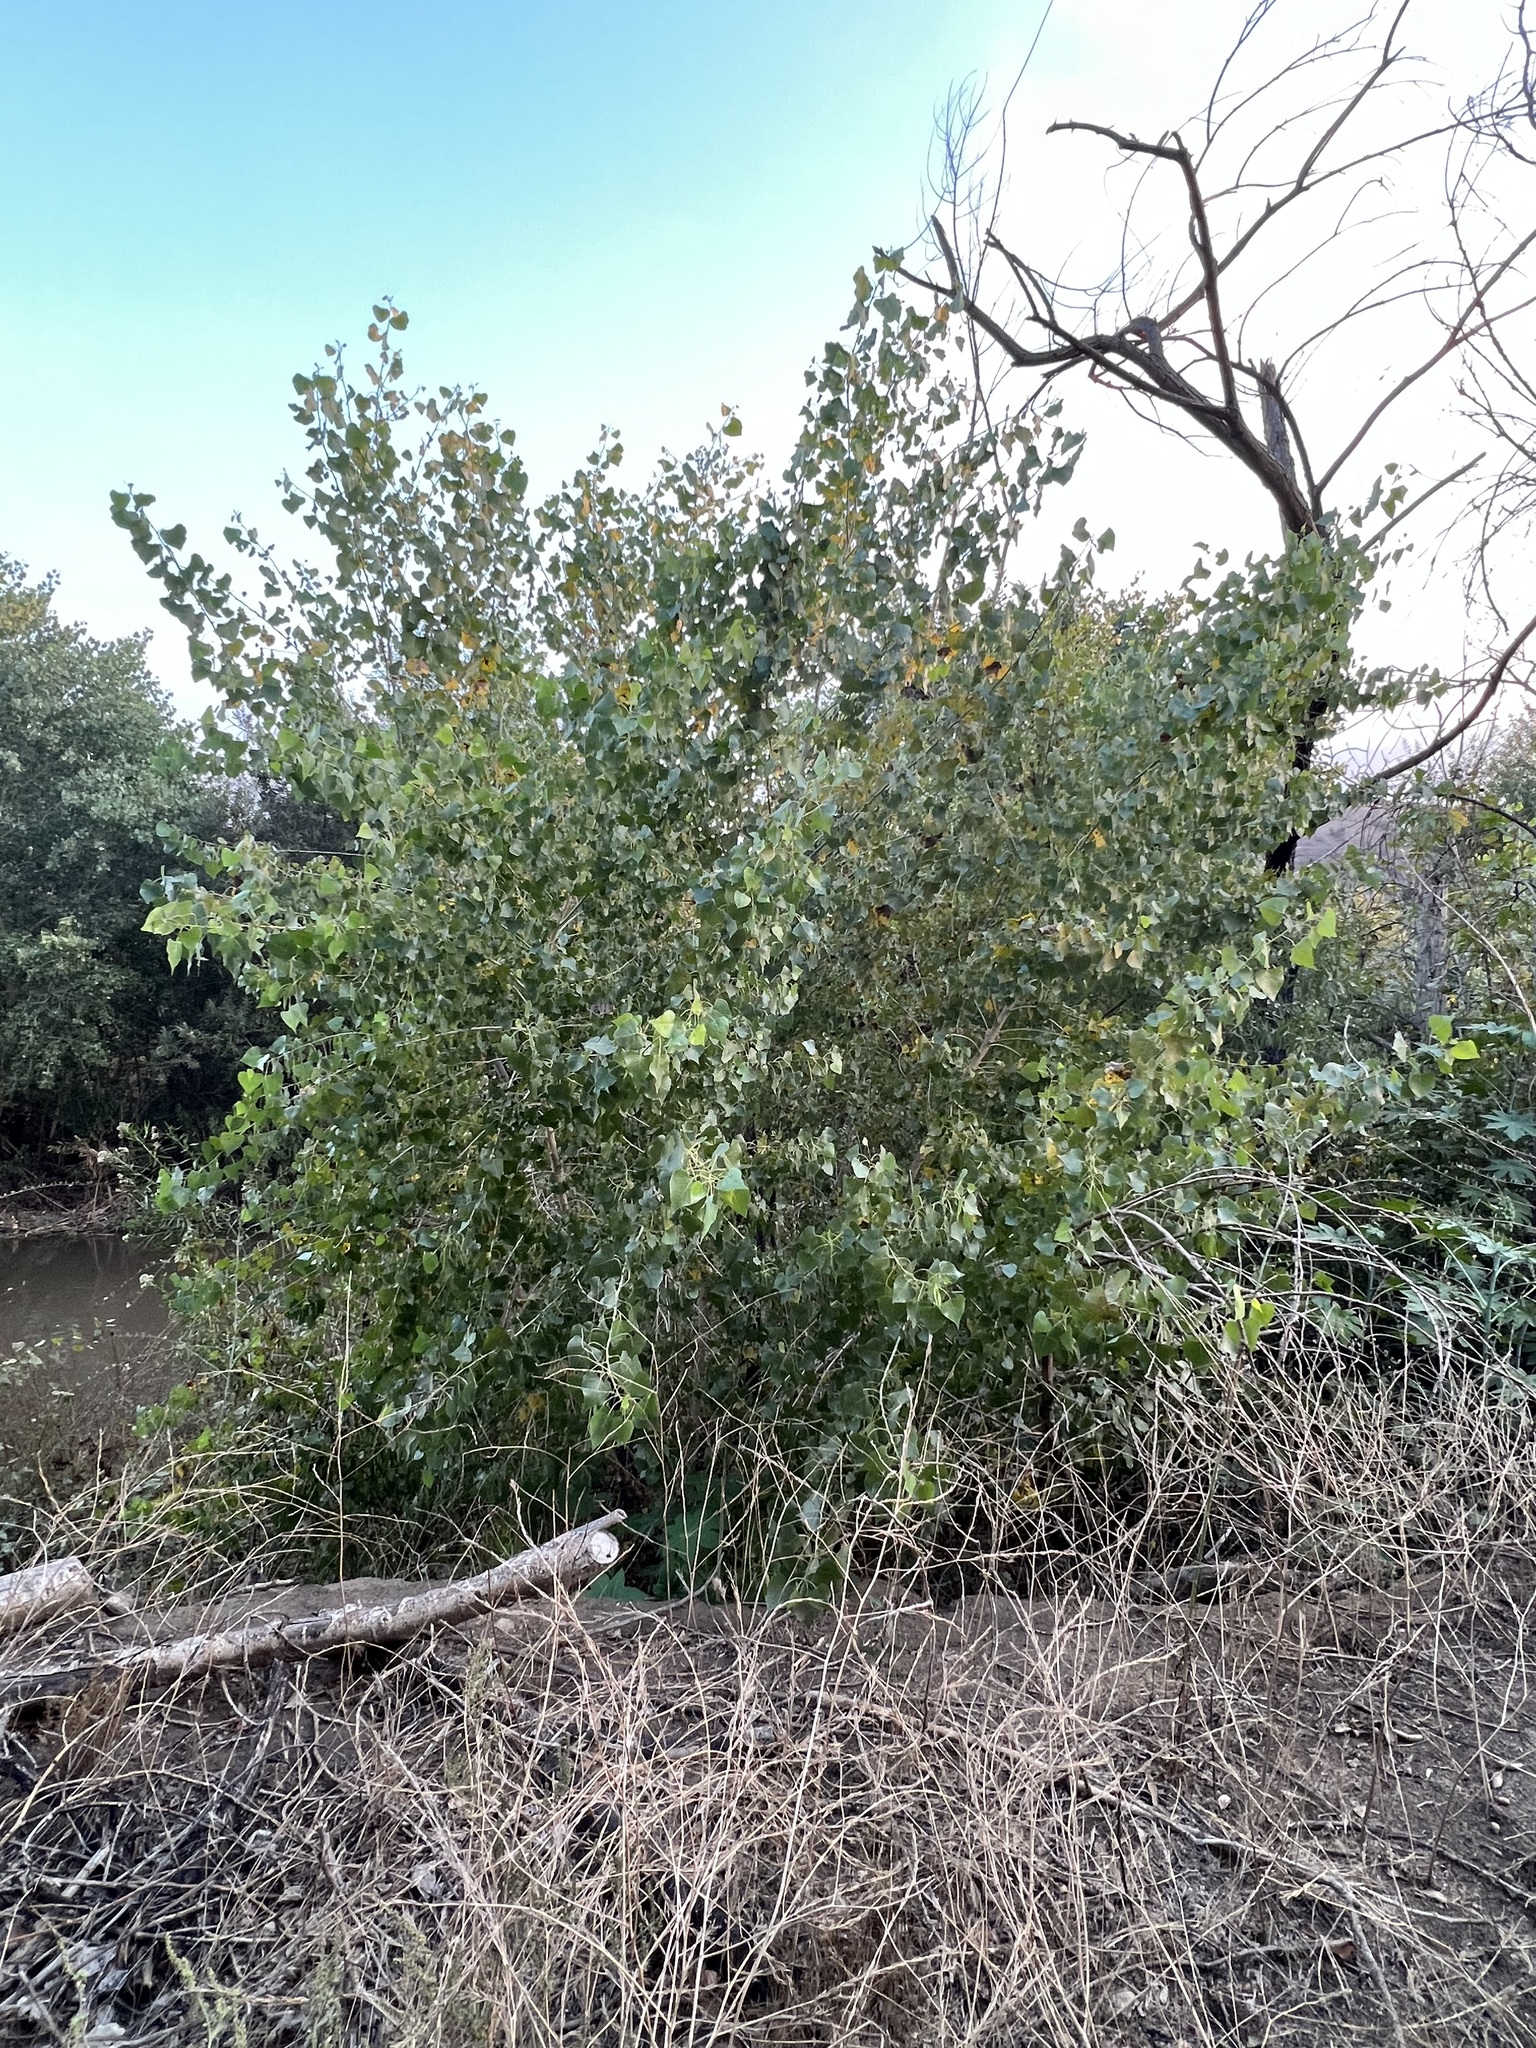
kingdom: Plantae
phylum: Tracheophyta
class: Magnoliopsida
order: Malpighiales
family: Salicaceae
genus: Populus
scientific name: Populus fremontii
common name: Fremont's cottonwood
